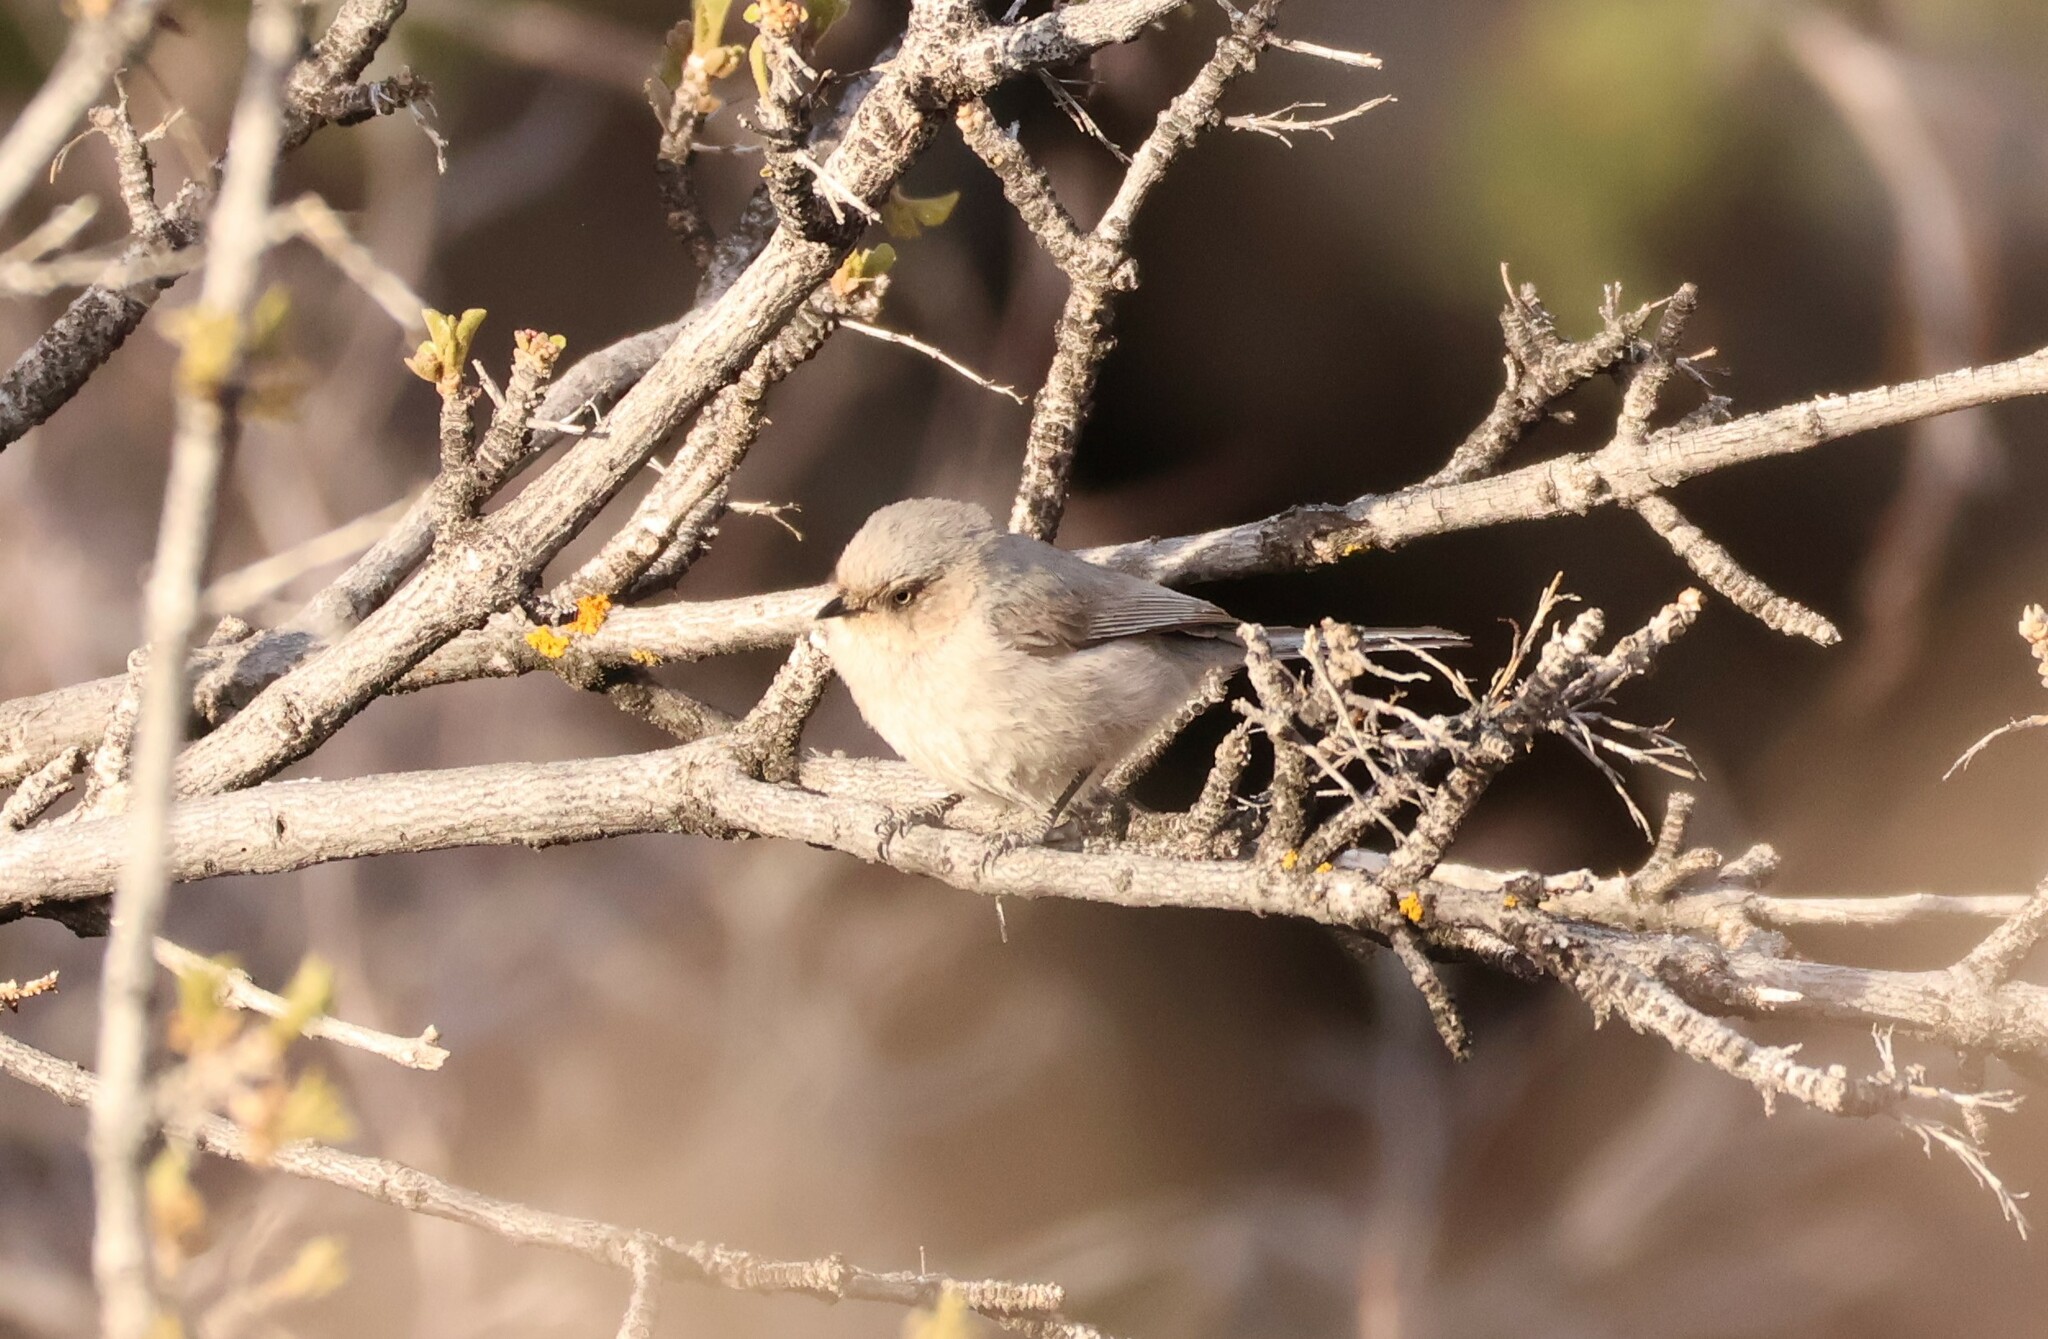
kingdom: Animalia
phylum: Chordata
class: Aves
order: Passeriformes
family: Aegithalidae
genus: Psaltriparus
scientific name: Psaltriparus minimus
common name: American bushtit
